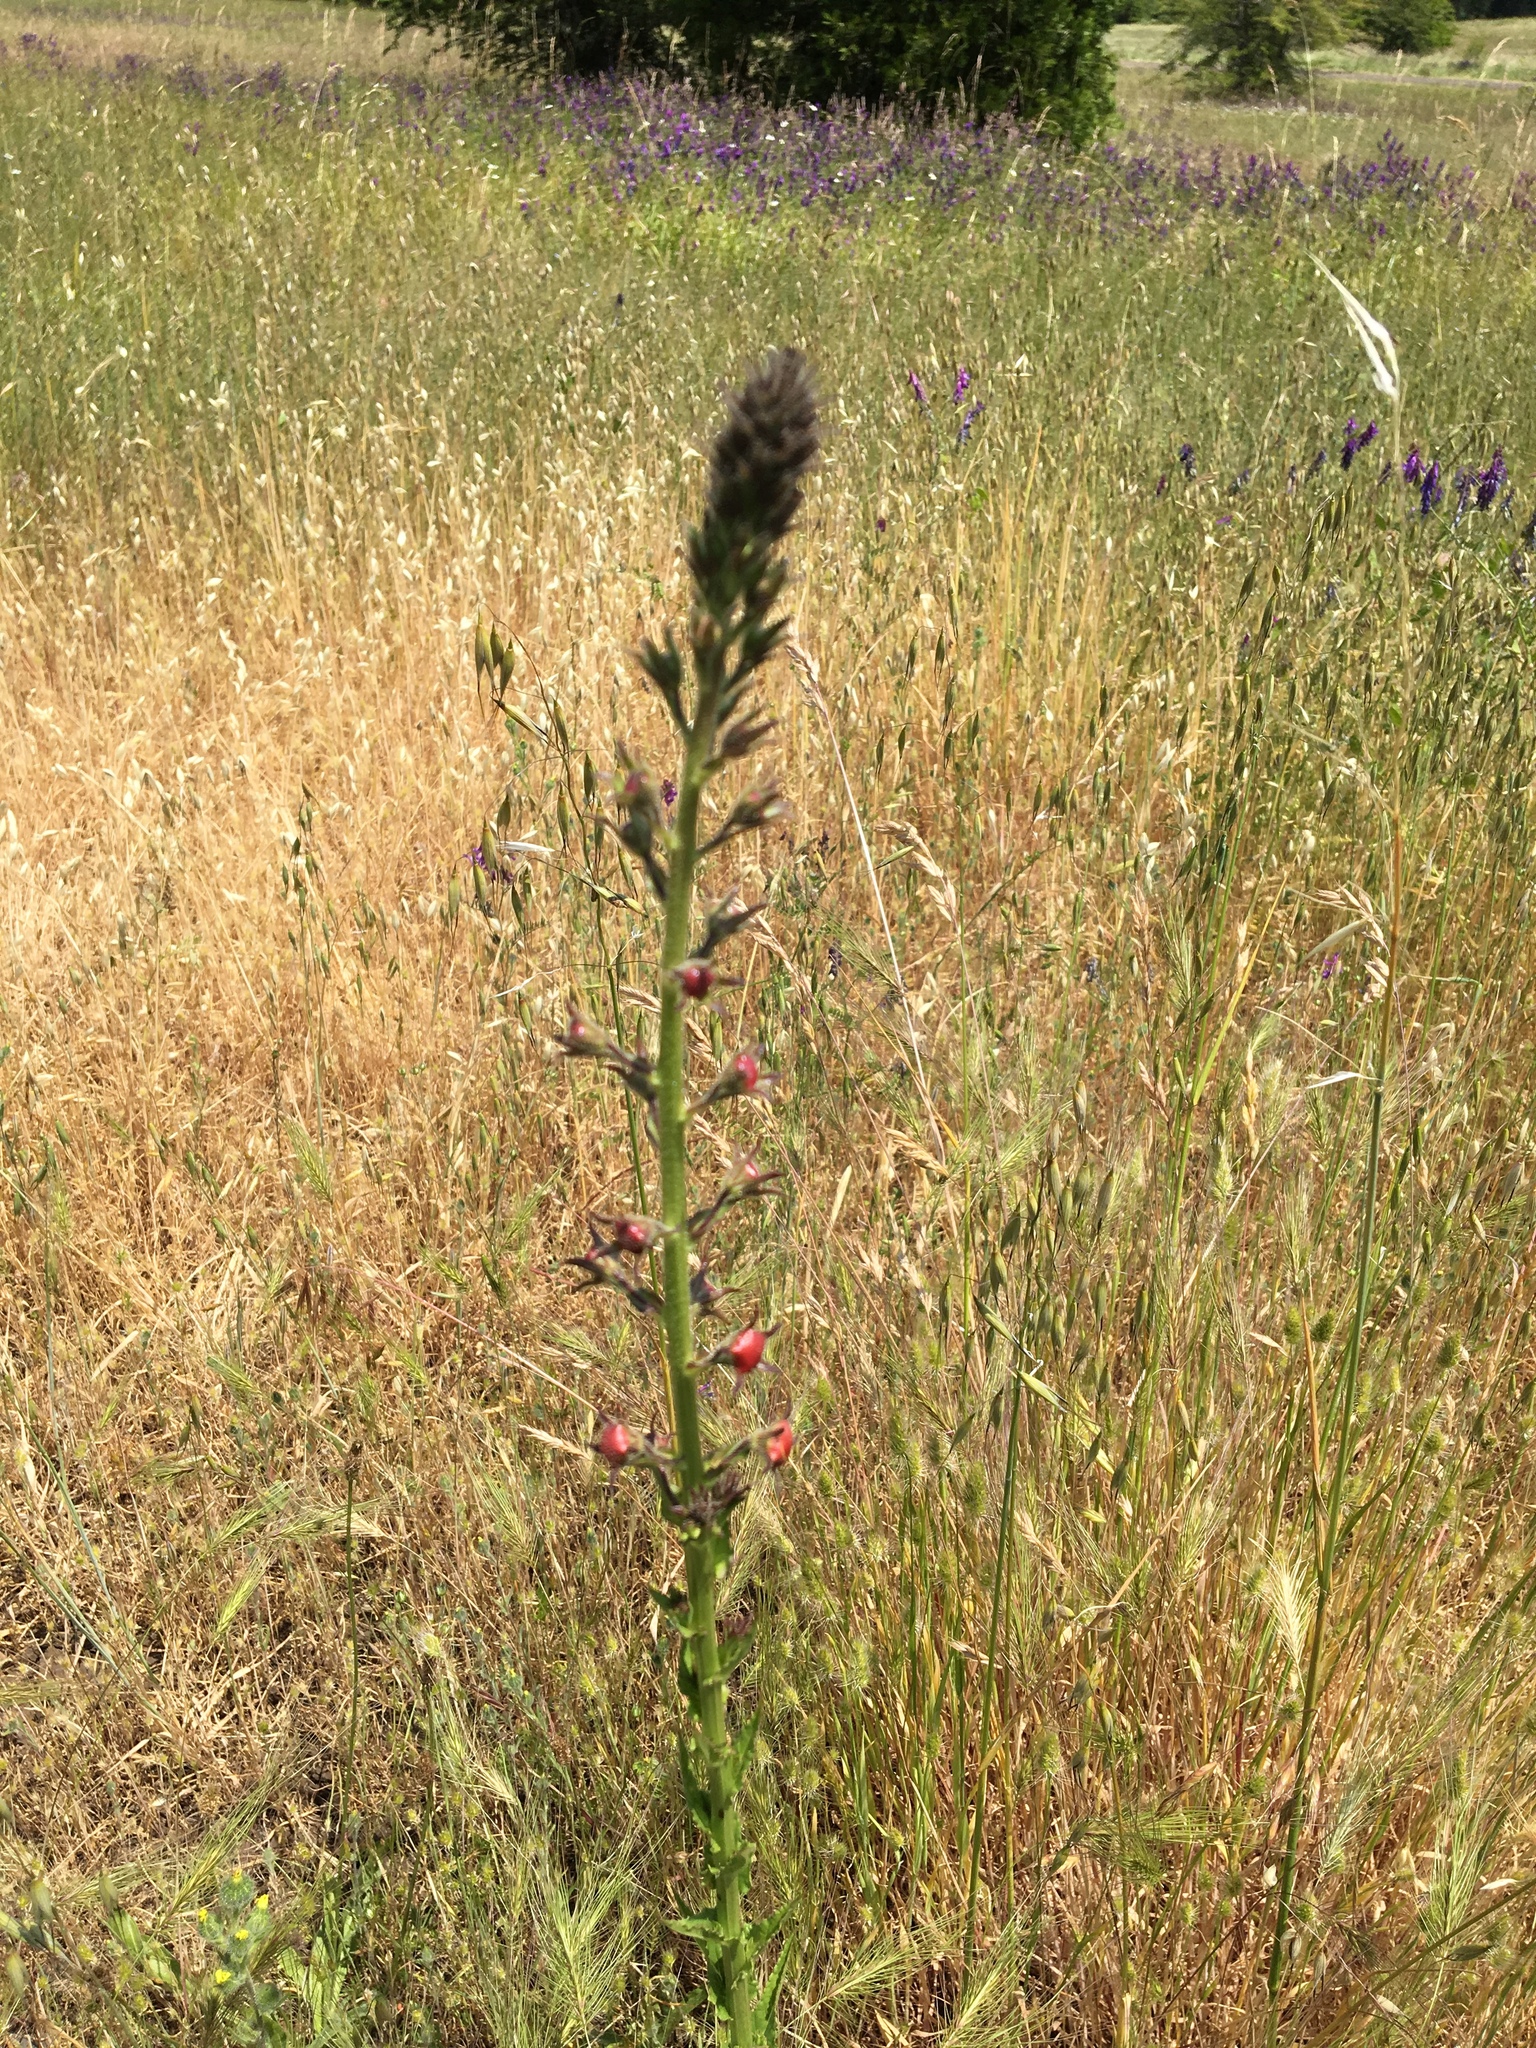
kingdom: Plantae
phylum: Tracheophyta
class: Magnoliopsida
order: Lamiales
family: Scrophulariaceae
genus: Verbascum
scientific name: Verbascum blattaria
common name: Moth mullein
